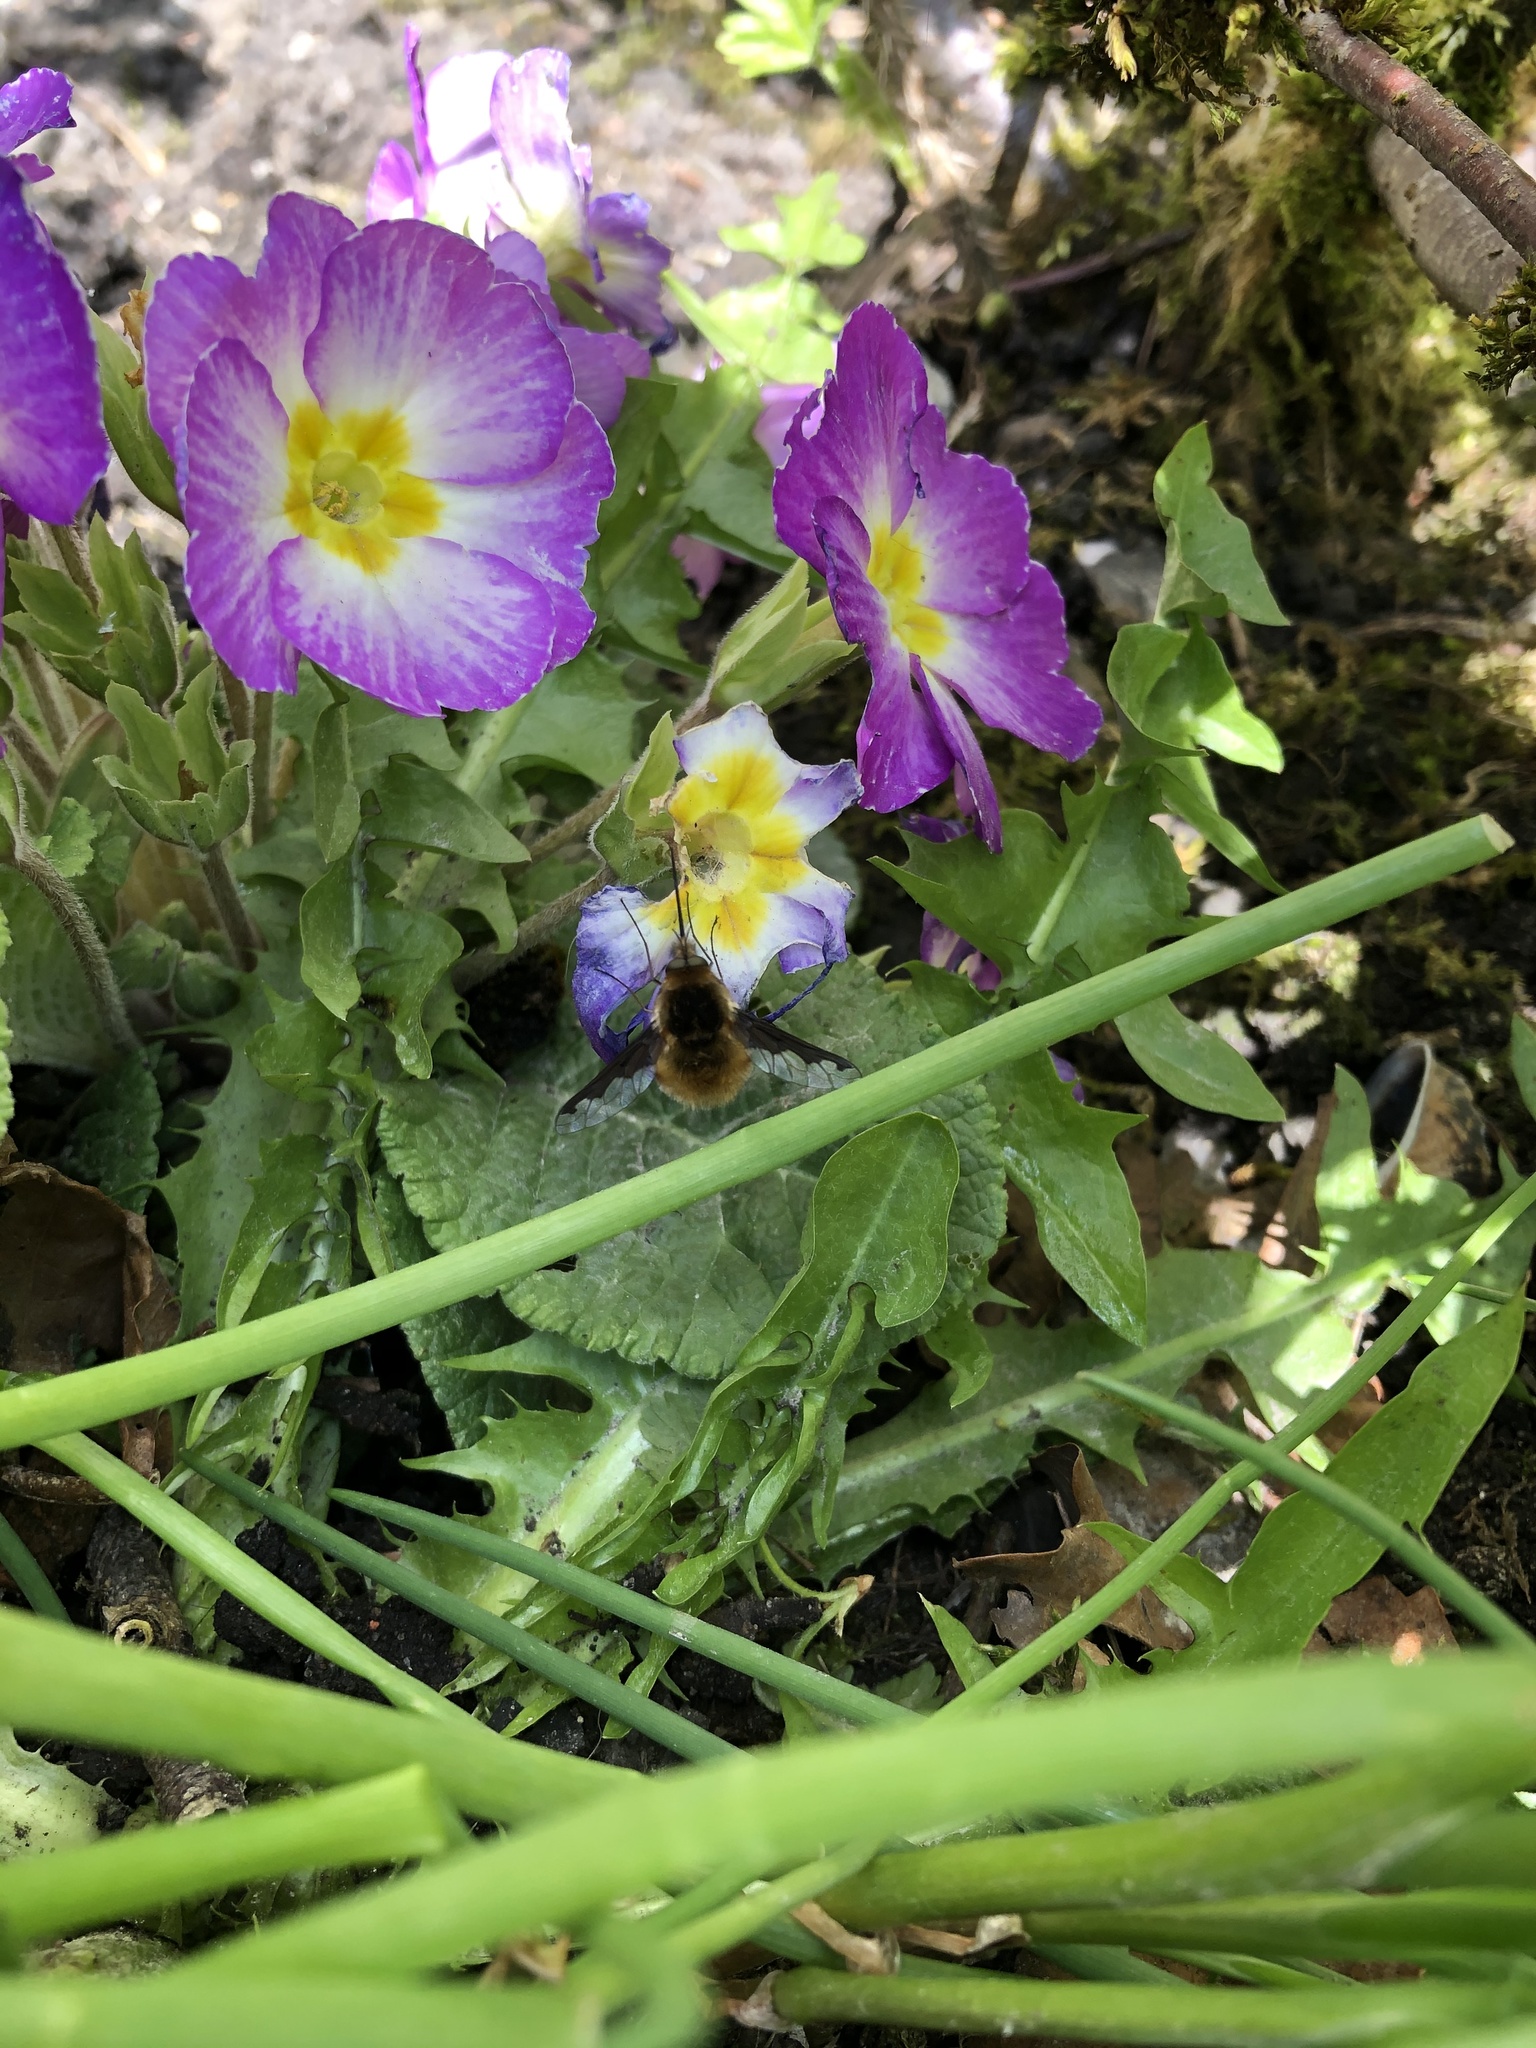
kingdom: Animalia
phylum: Arthropoda
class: Insecta
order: Diptera
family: Bombyliidae
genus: Bombylius
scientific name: Bombylius major
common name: Bee fly
